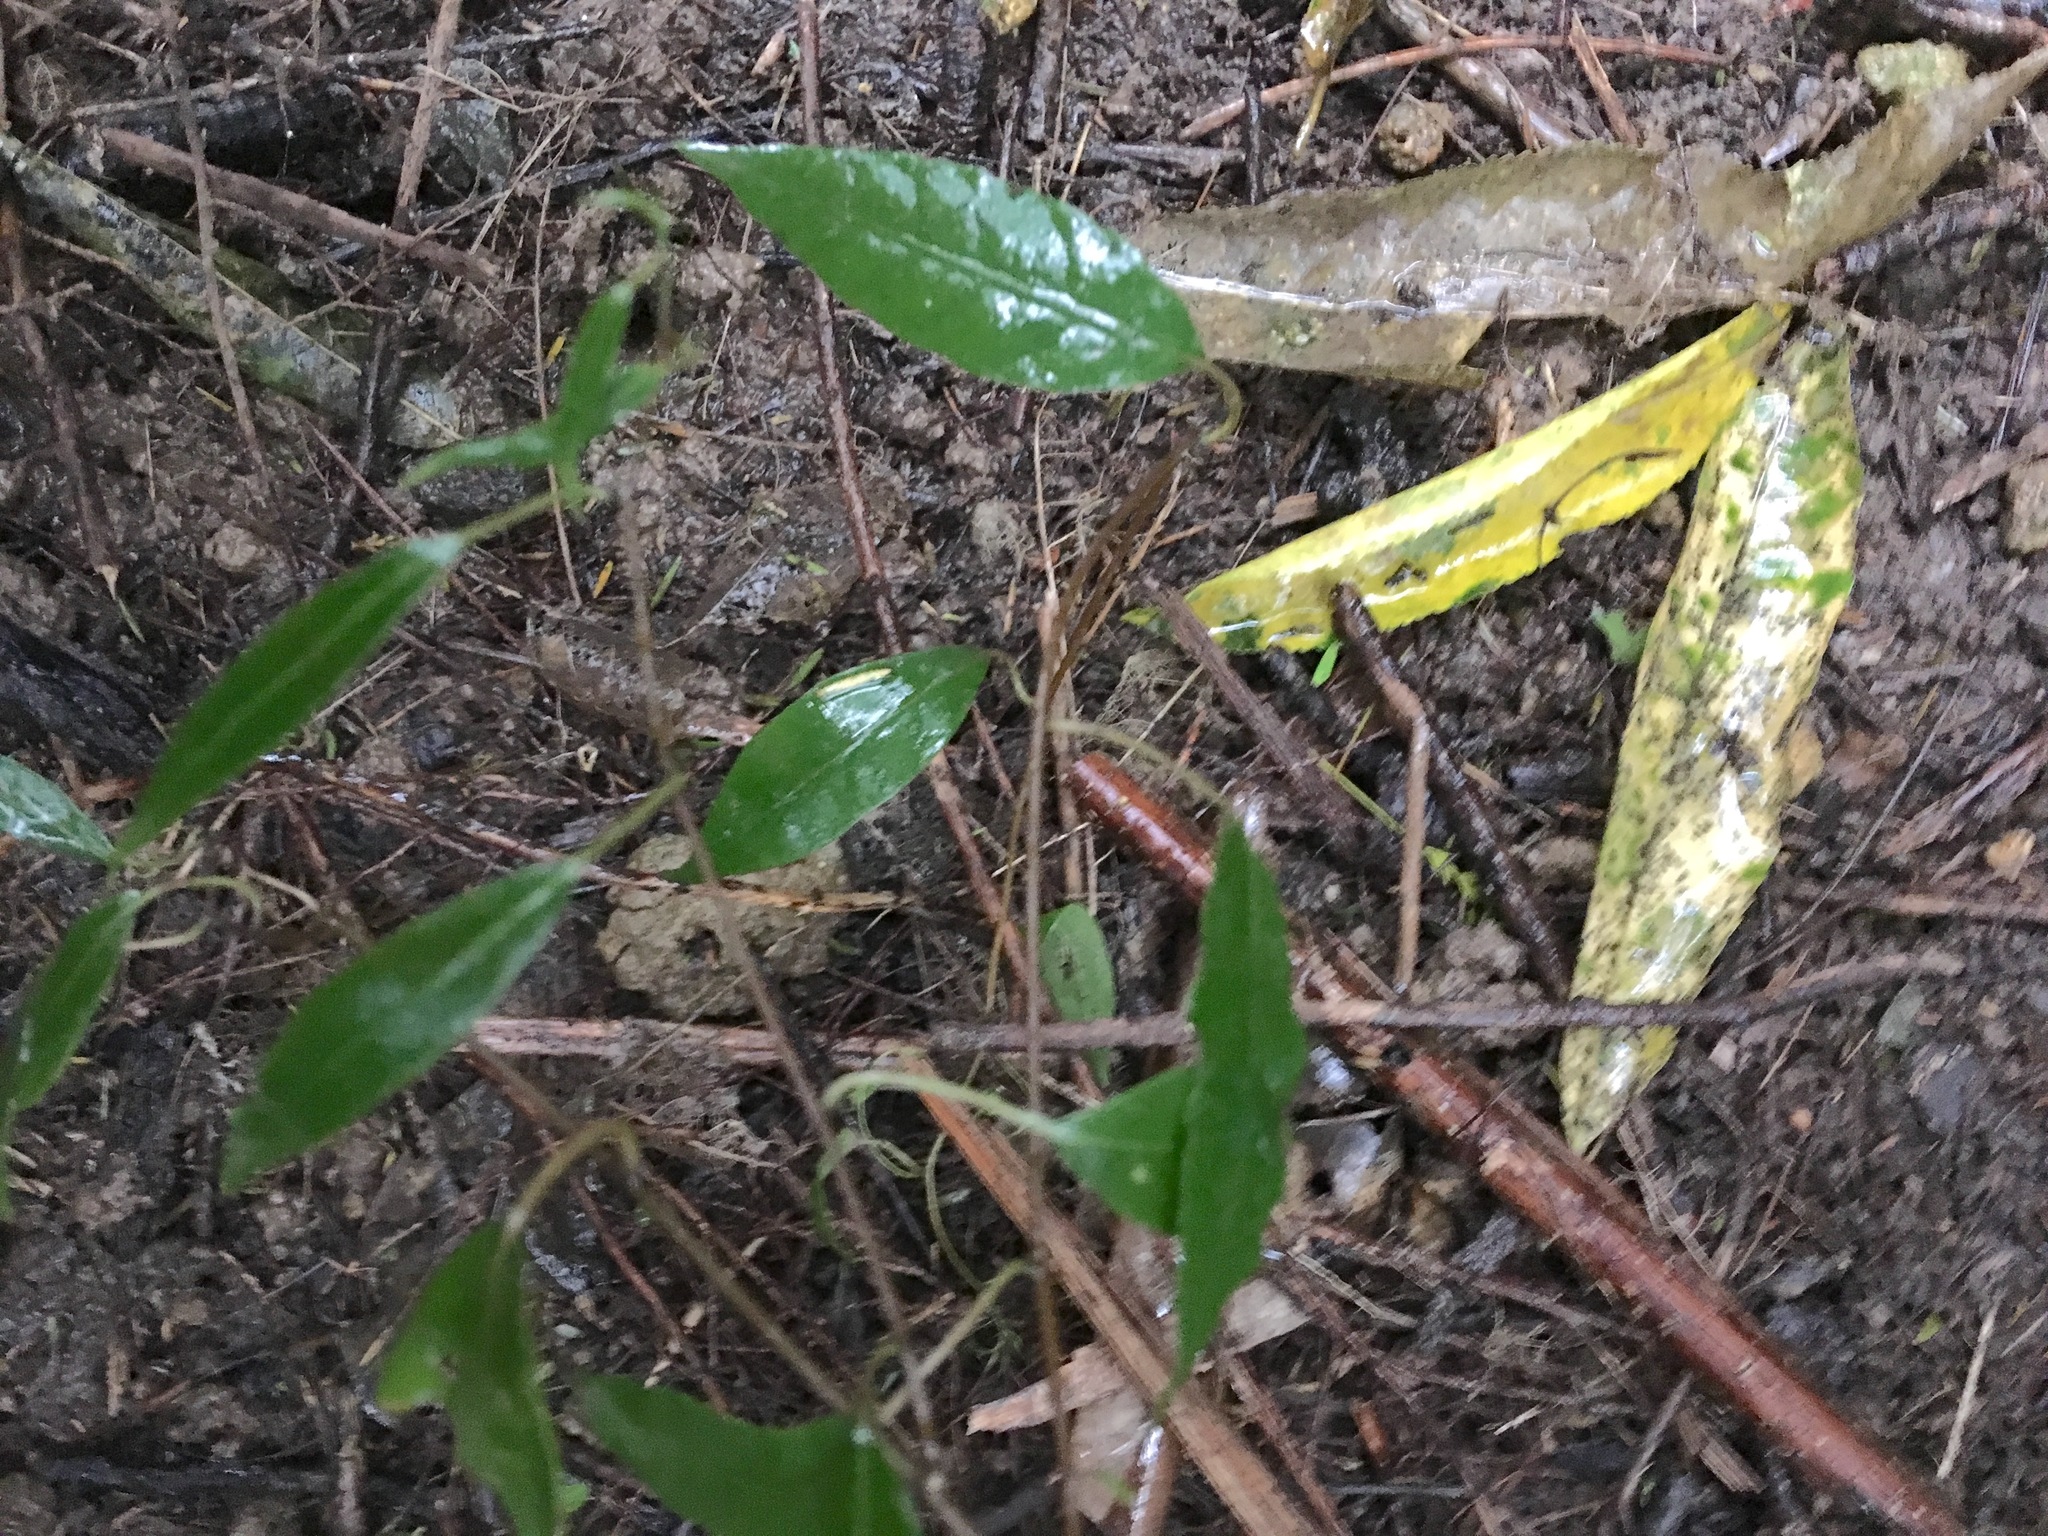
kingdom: Plantae
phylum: Tracheophyta
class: Magnoliopsida
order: Malpighiales
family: Passifloraceae
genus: Passiflora
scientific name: Passiflora tetrandra
